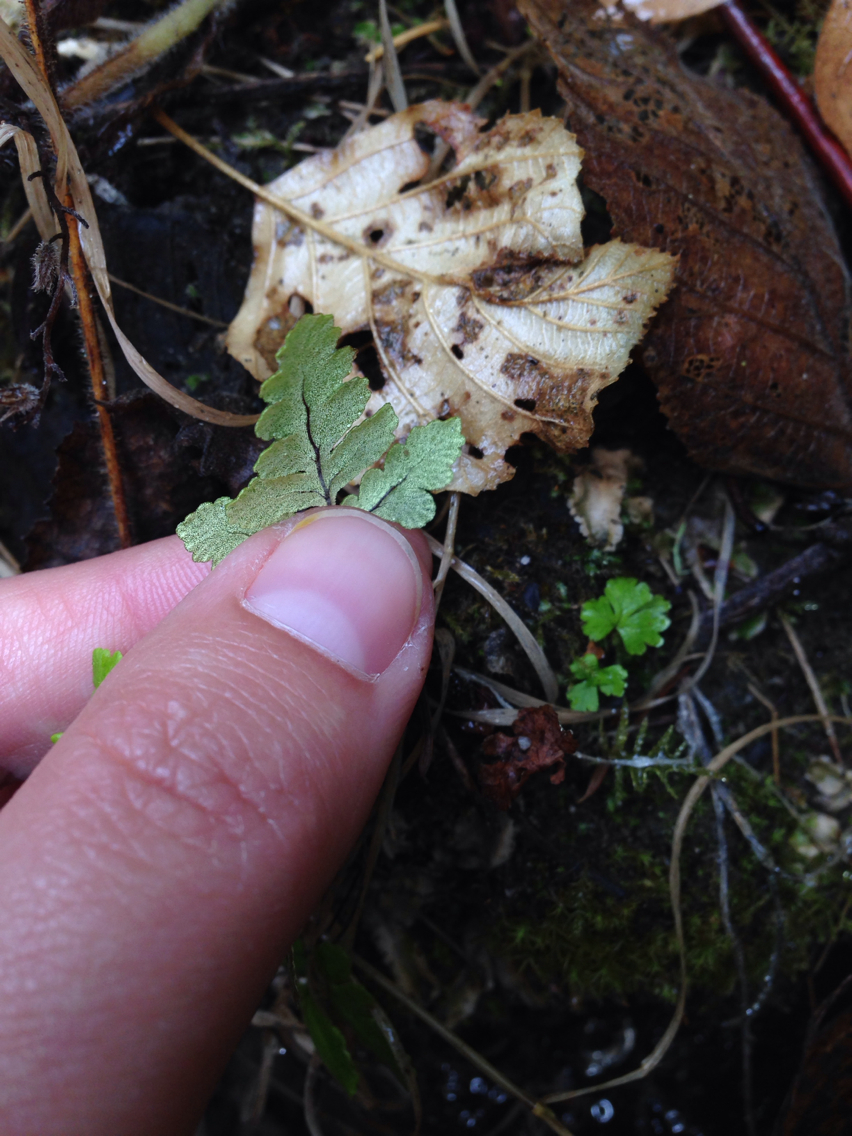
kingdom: Plantae
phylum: Tracheophyta
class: Polypodiopsida
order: Polypodiales
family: Pteridaceae
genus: Pentagramma
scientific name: Pentagramma triangularis
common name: Gold fern
